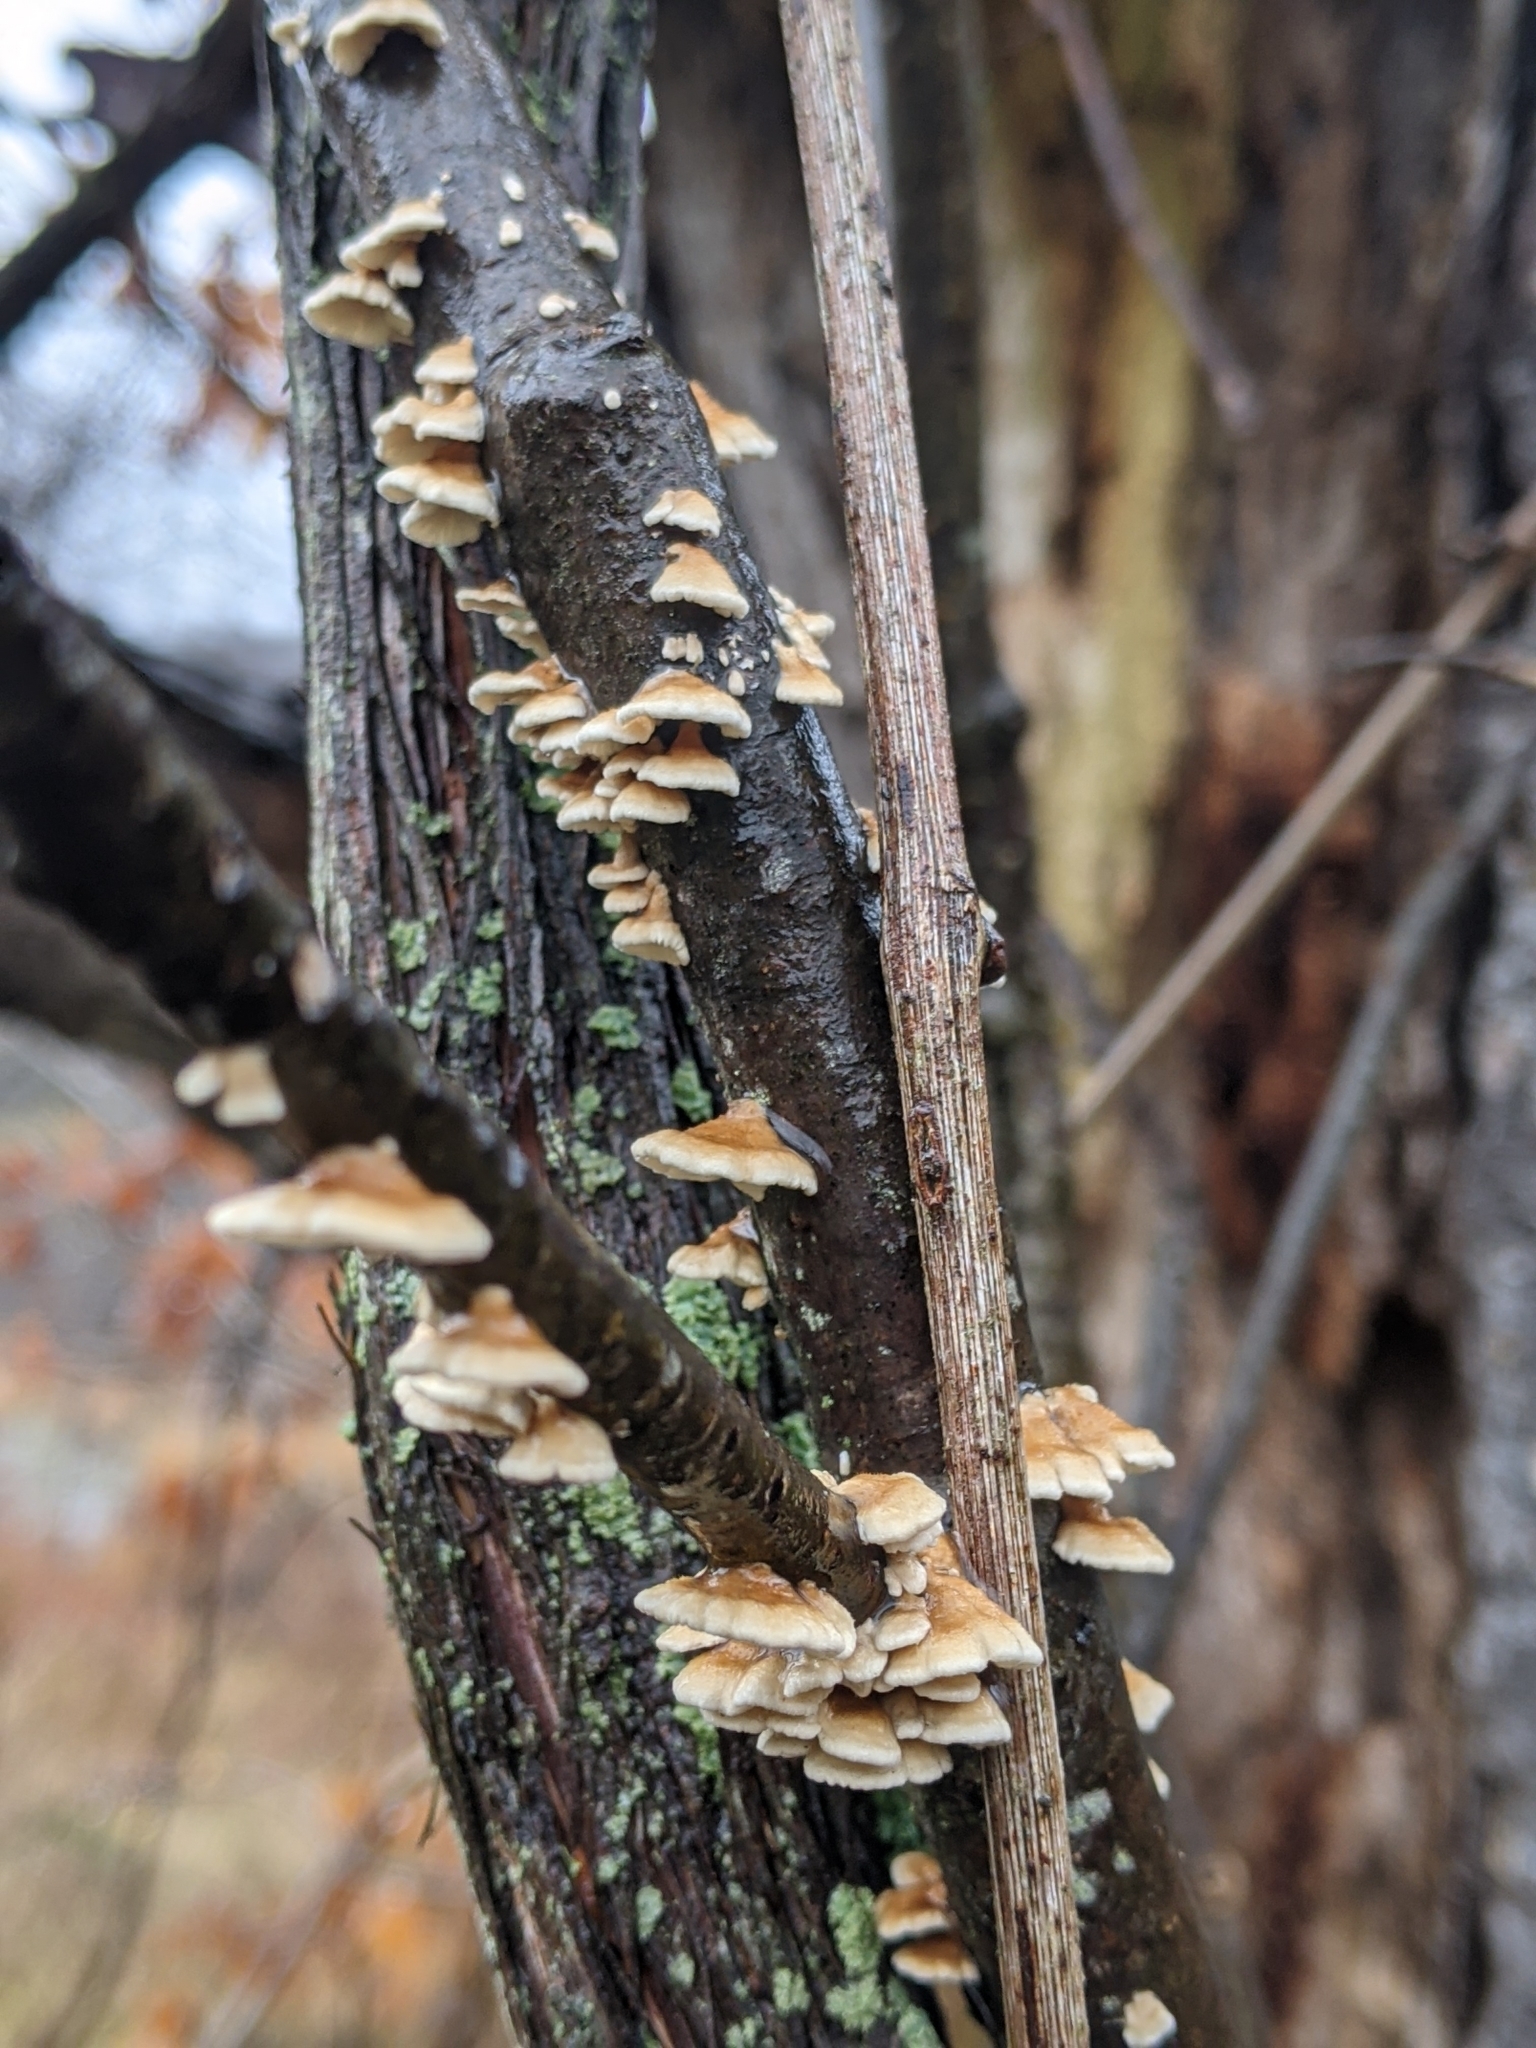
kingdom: Fungi
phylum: Basidiomycota
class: Agaricomycetes
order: Amylocorticiales
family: Amylocorticiaceae
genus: Plicaturopsis
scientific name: Plicaturopsis crispa
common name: Crimped gill
